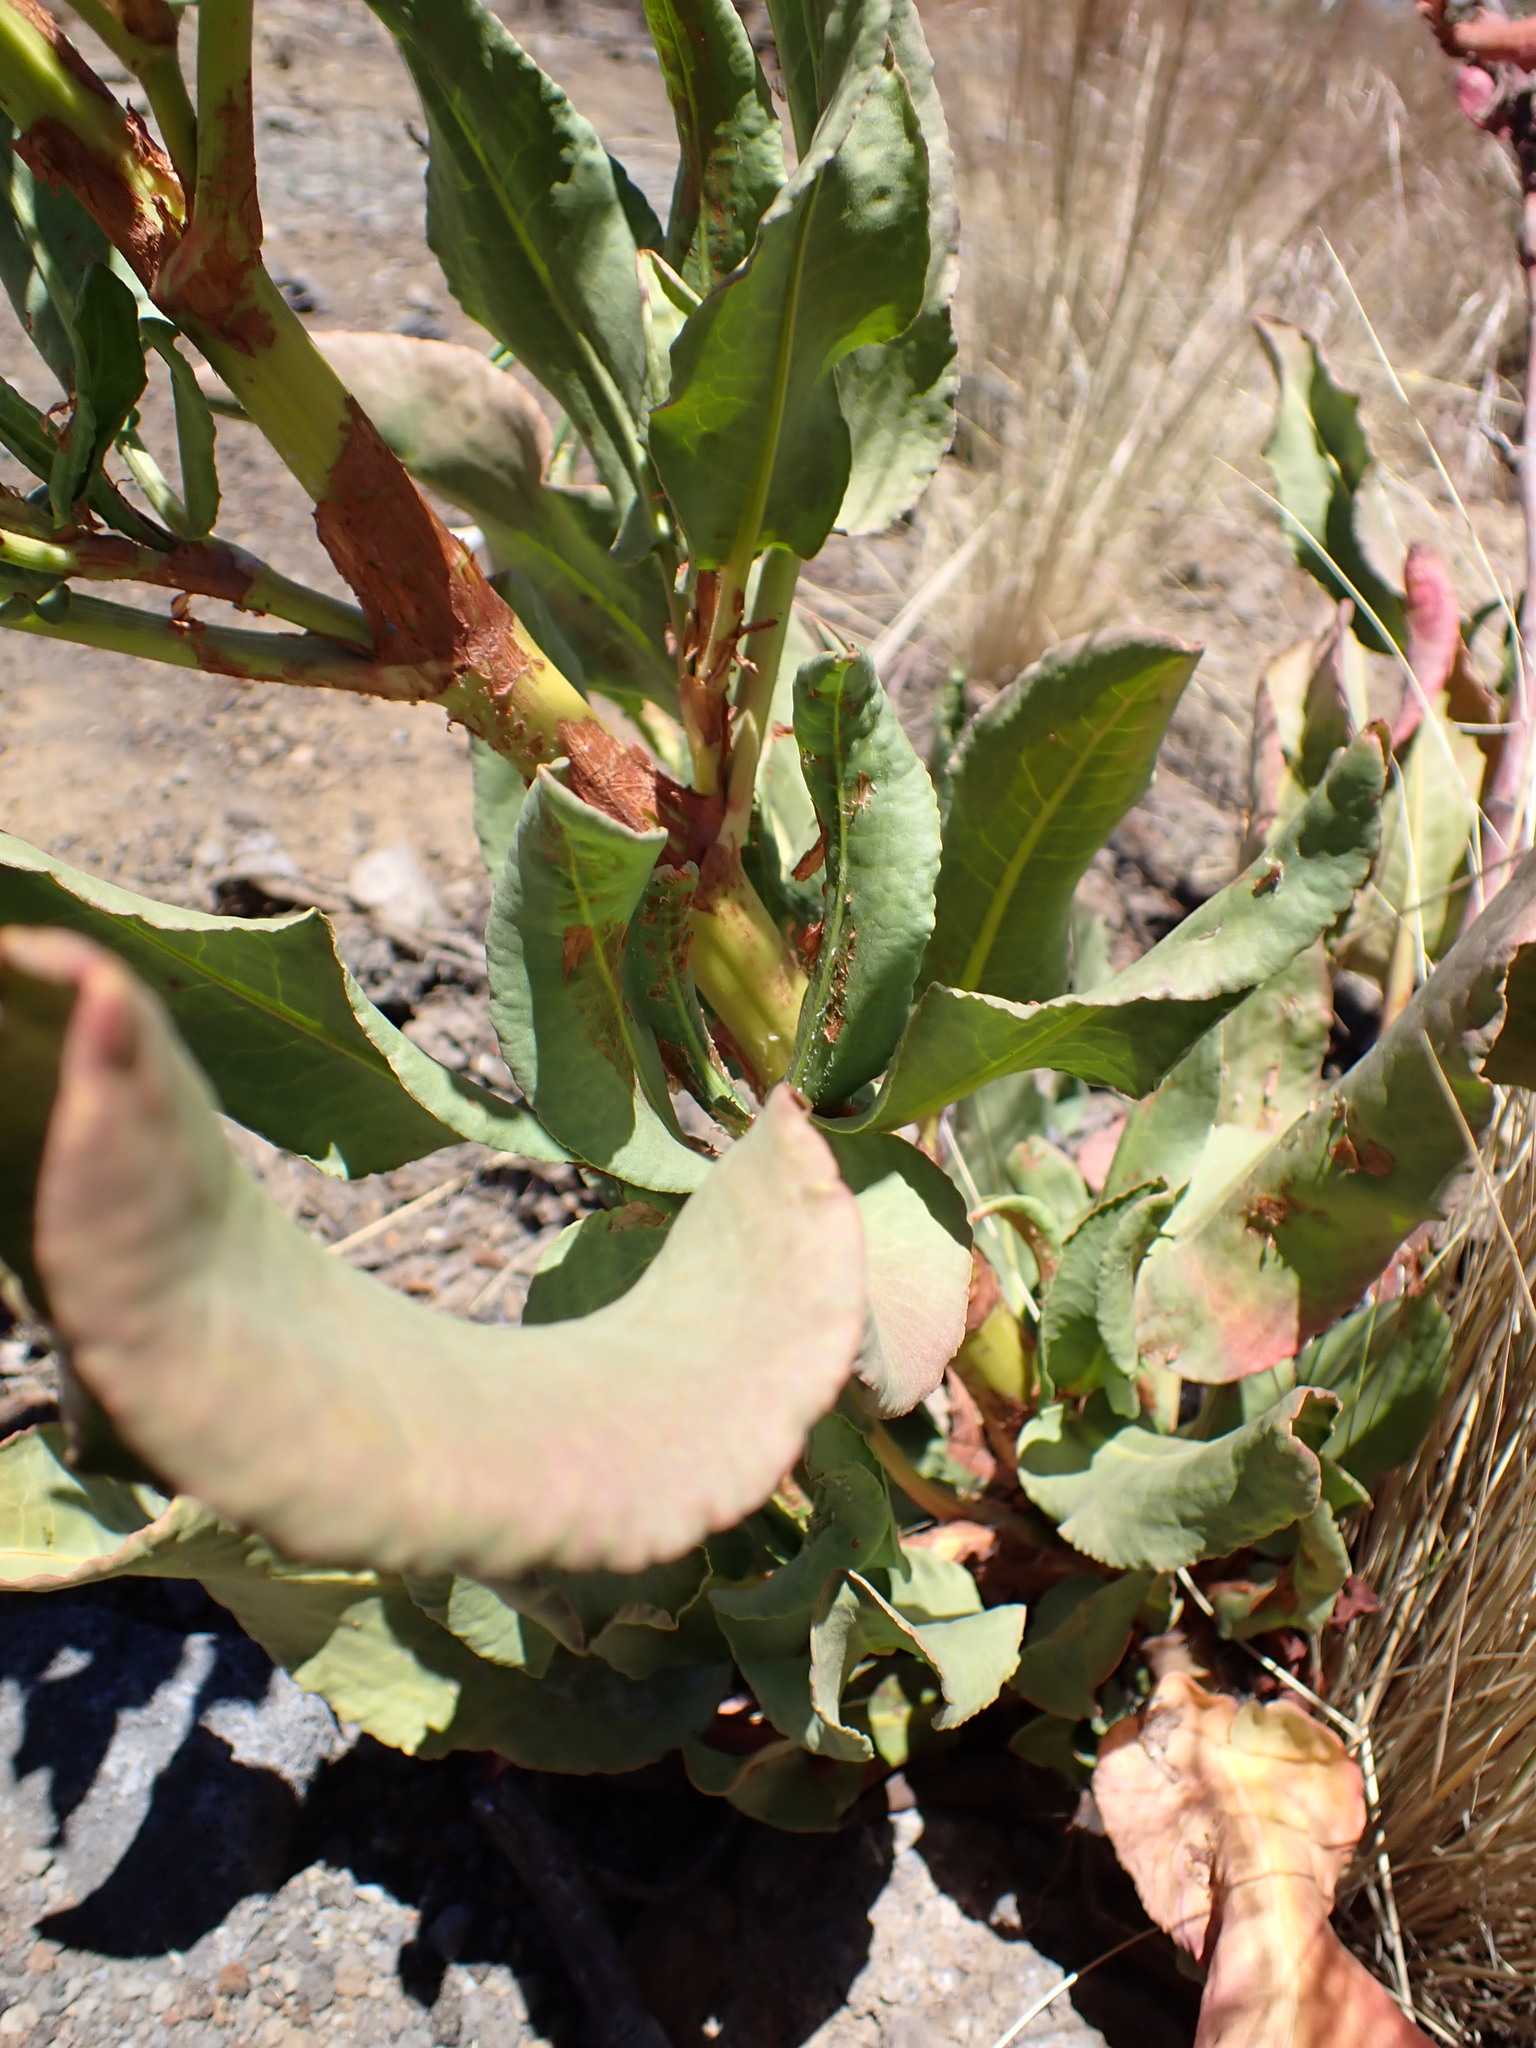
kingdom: Plantae
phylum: Tracheophyta
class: Magnoliopsida
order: Caryophyllales
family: Polygonaceae
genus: Rumex
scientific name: Rumex giganteus
